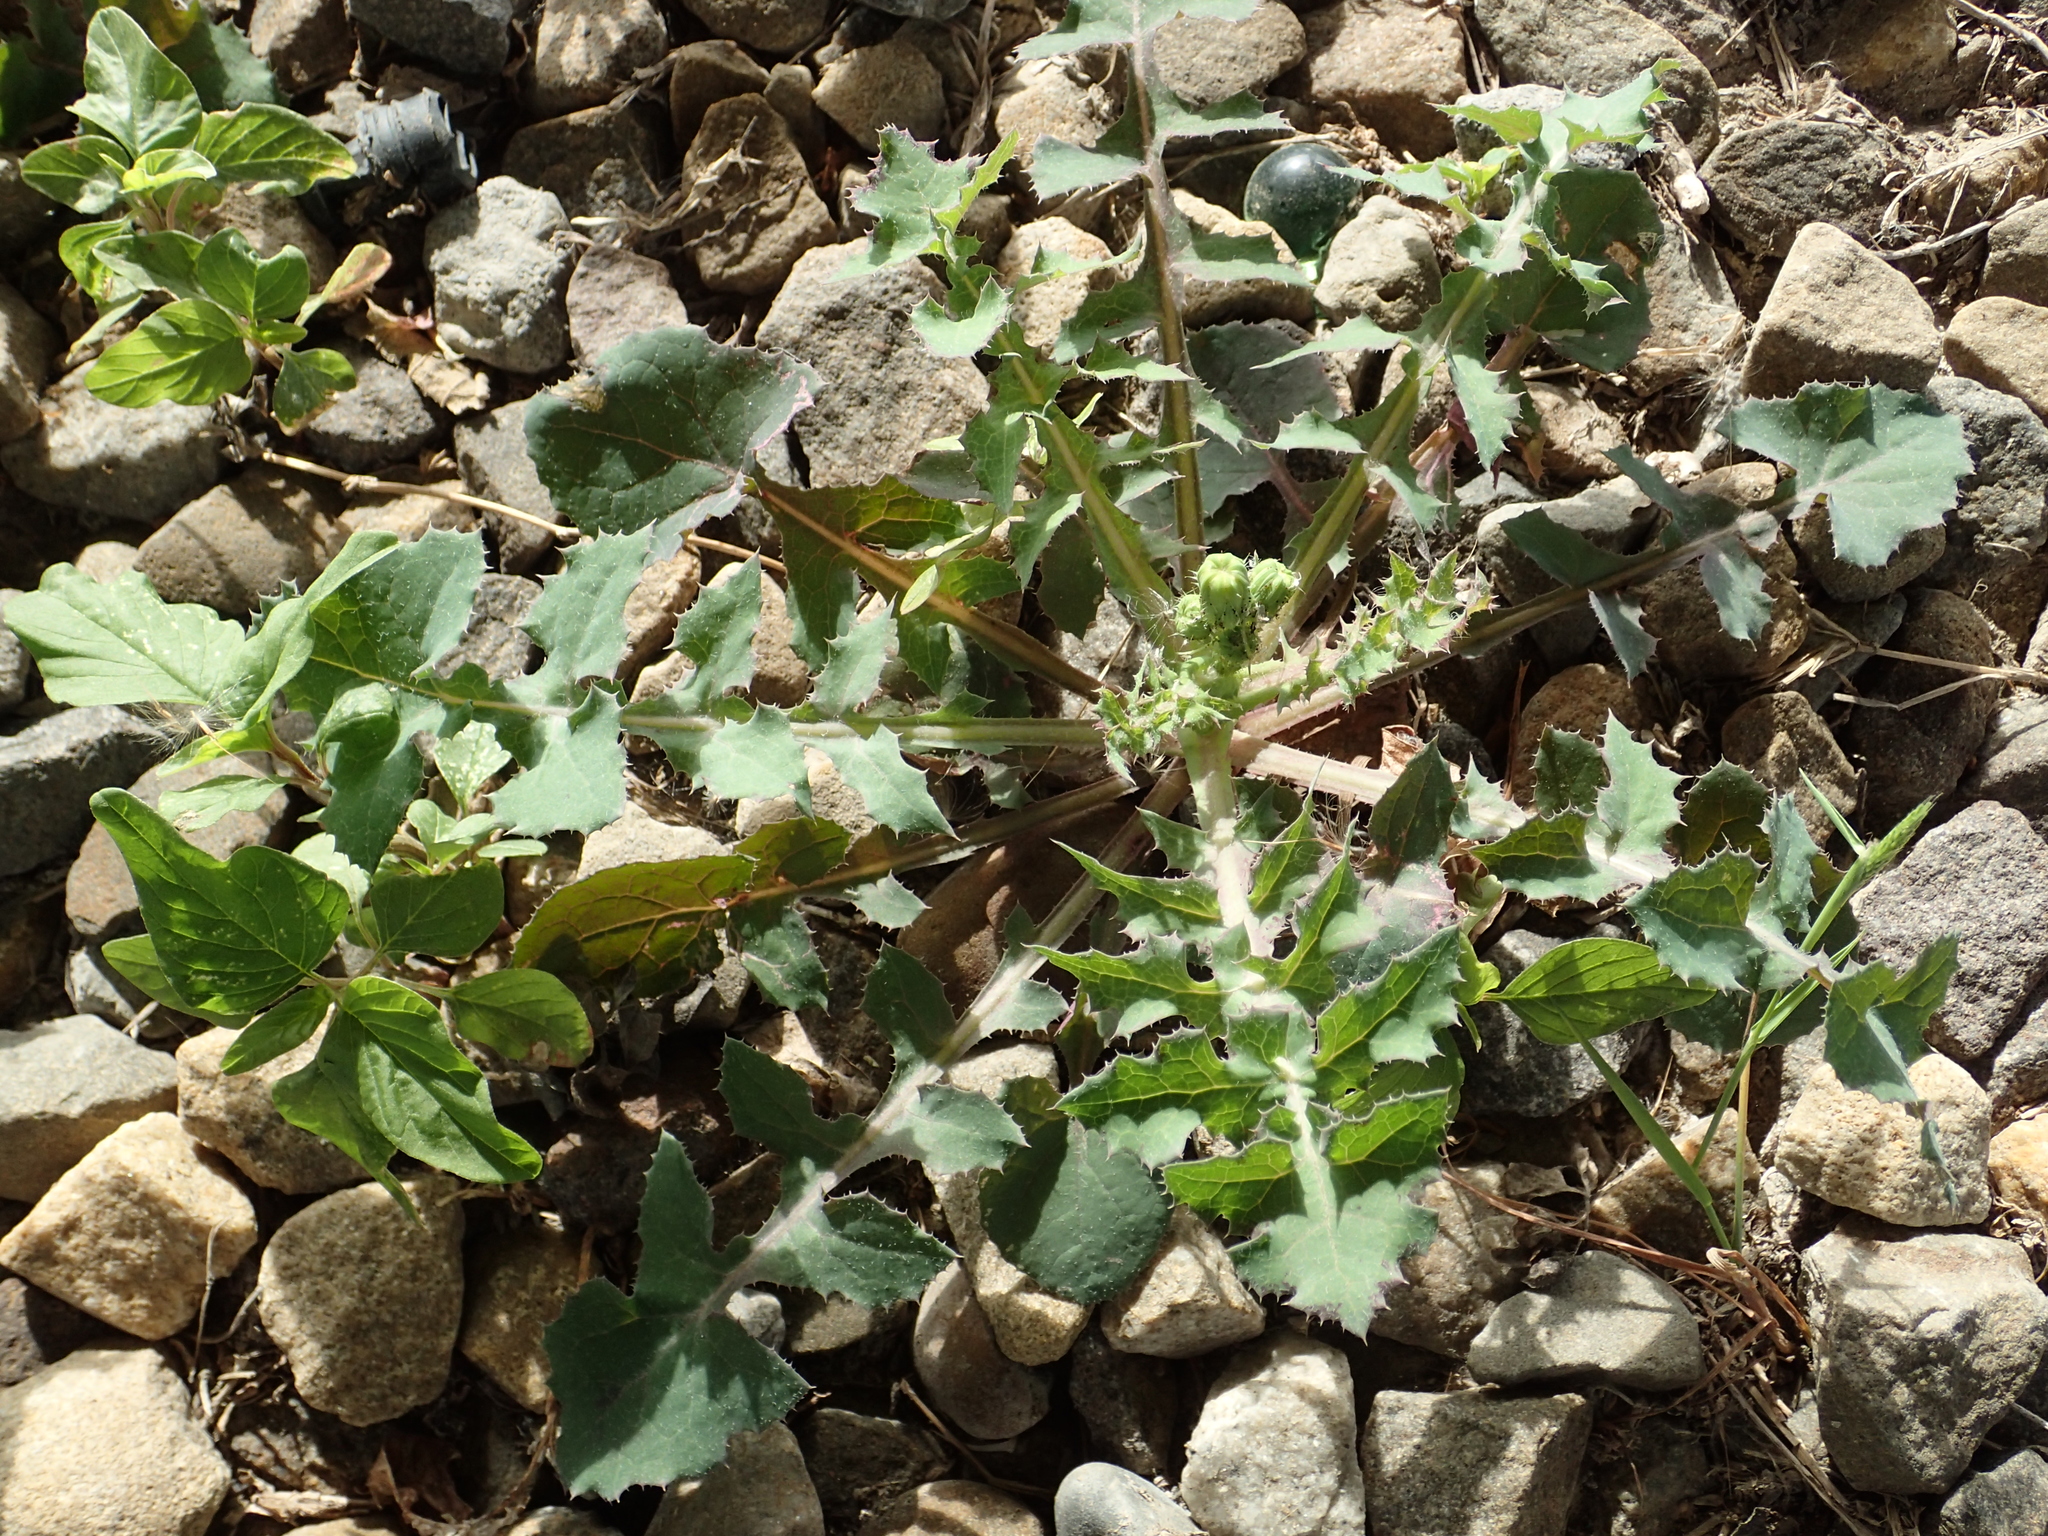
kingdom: Plantae
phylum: Tracheophyta
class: Magnoliopsida
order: Asterales
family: Asteraceae
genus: Sonchus
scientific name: Sonchus oleraceus
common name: Common sowthistle
